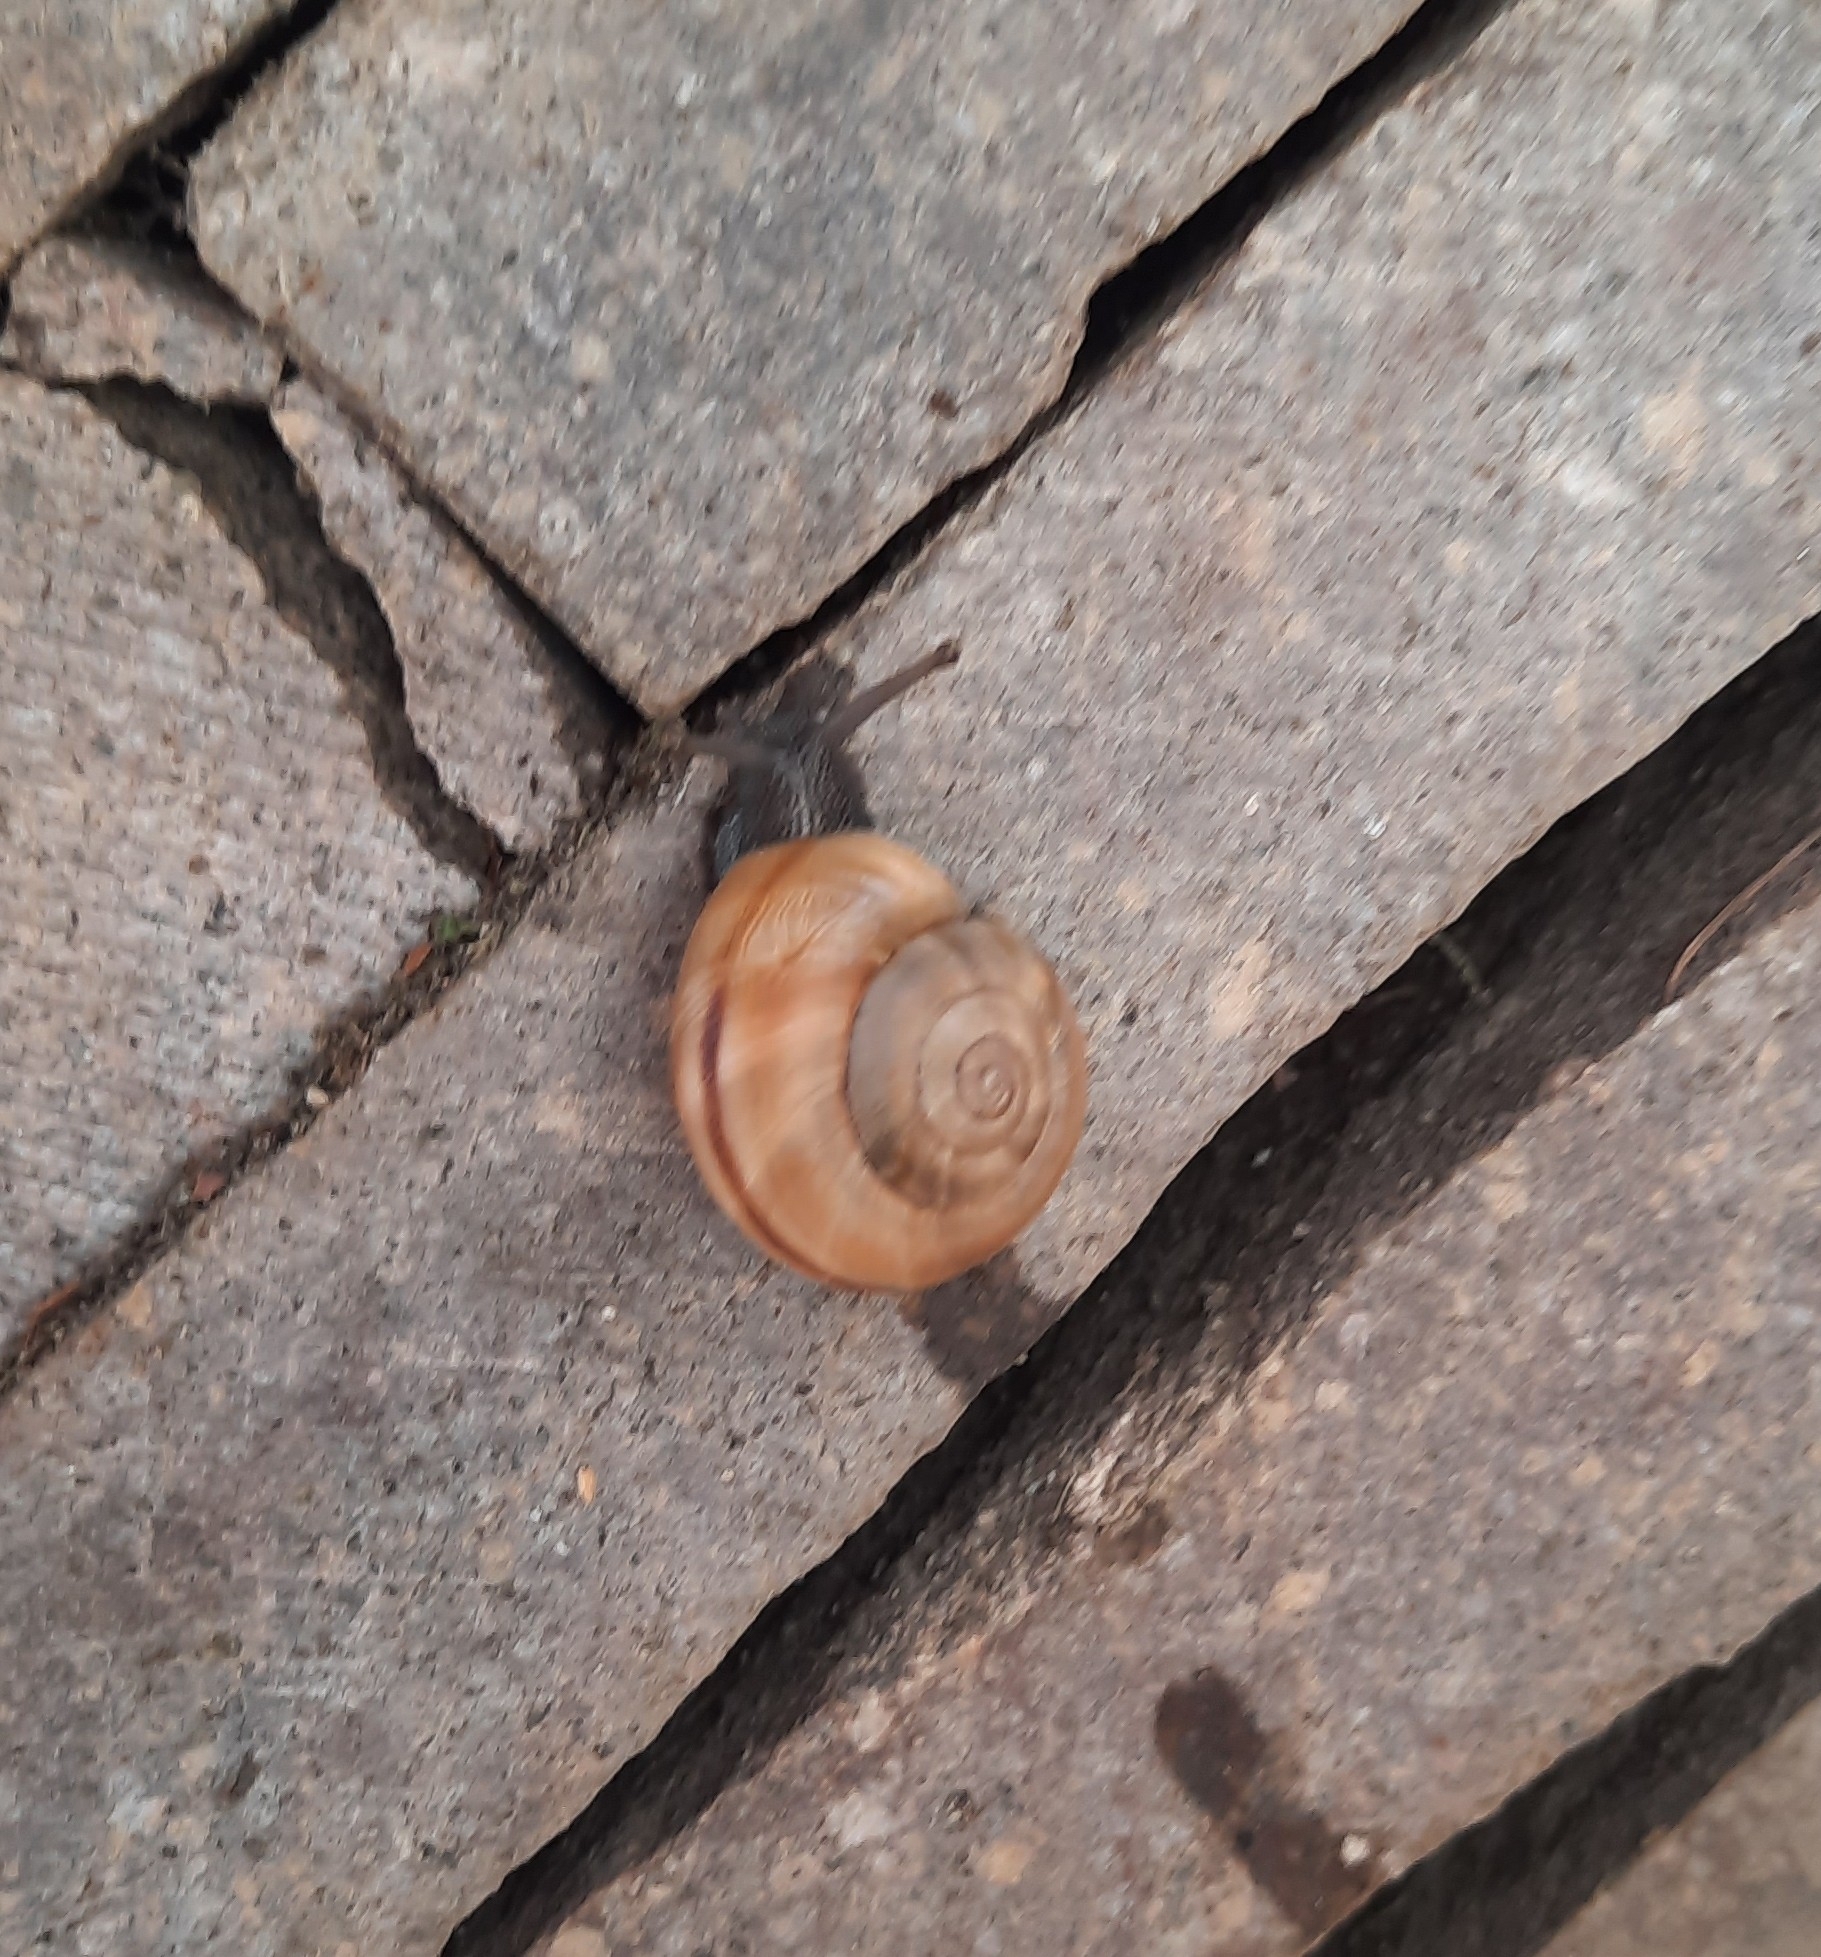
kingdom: Animalia
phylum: Mollusca
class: Gastropoda
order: Stylommatophora
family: Helicidae
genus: Chilostoma
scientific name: Chilostoma cingulatum
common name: Great rock snail
